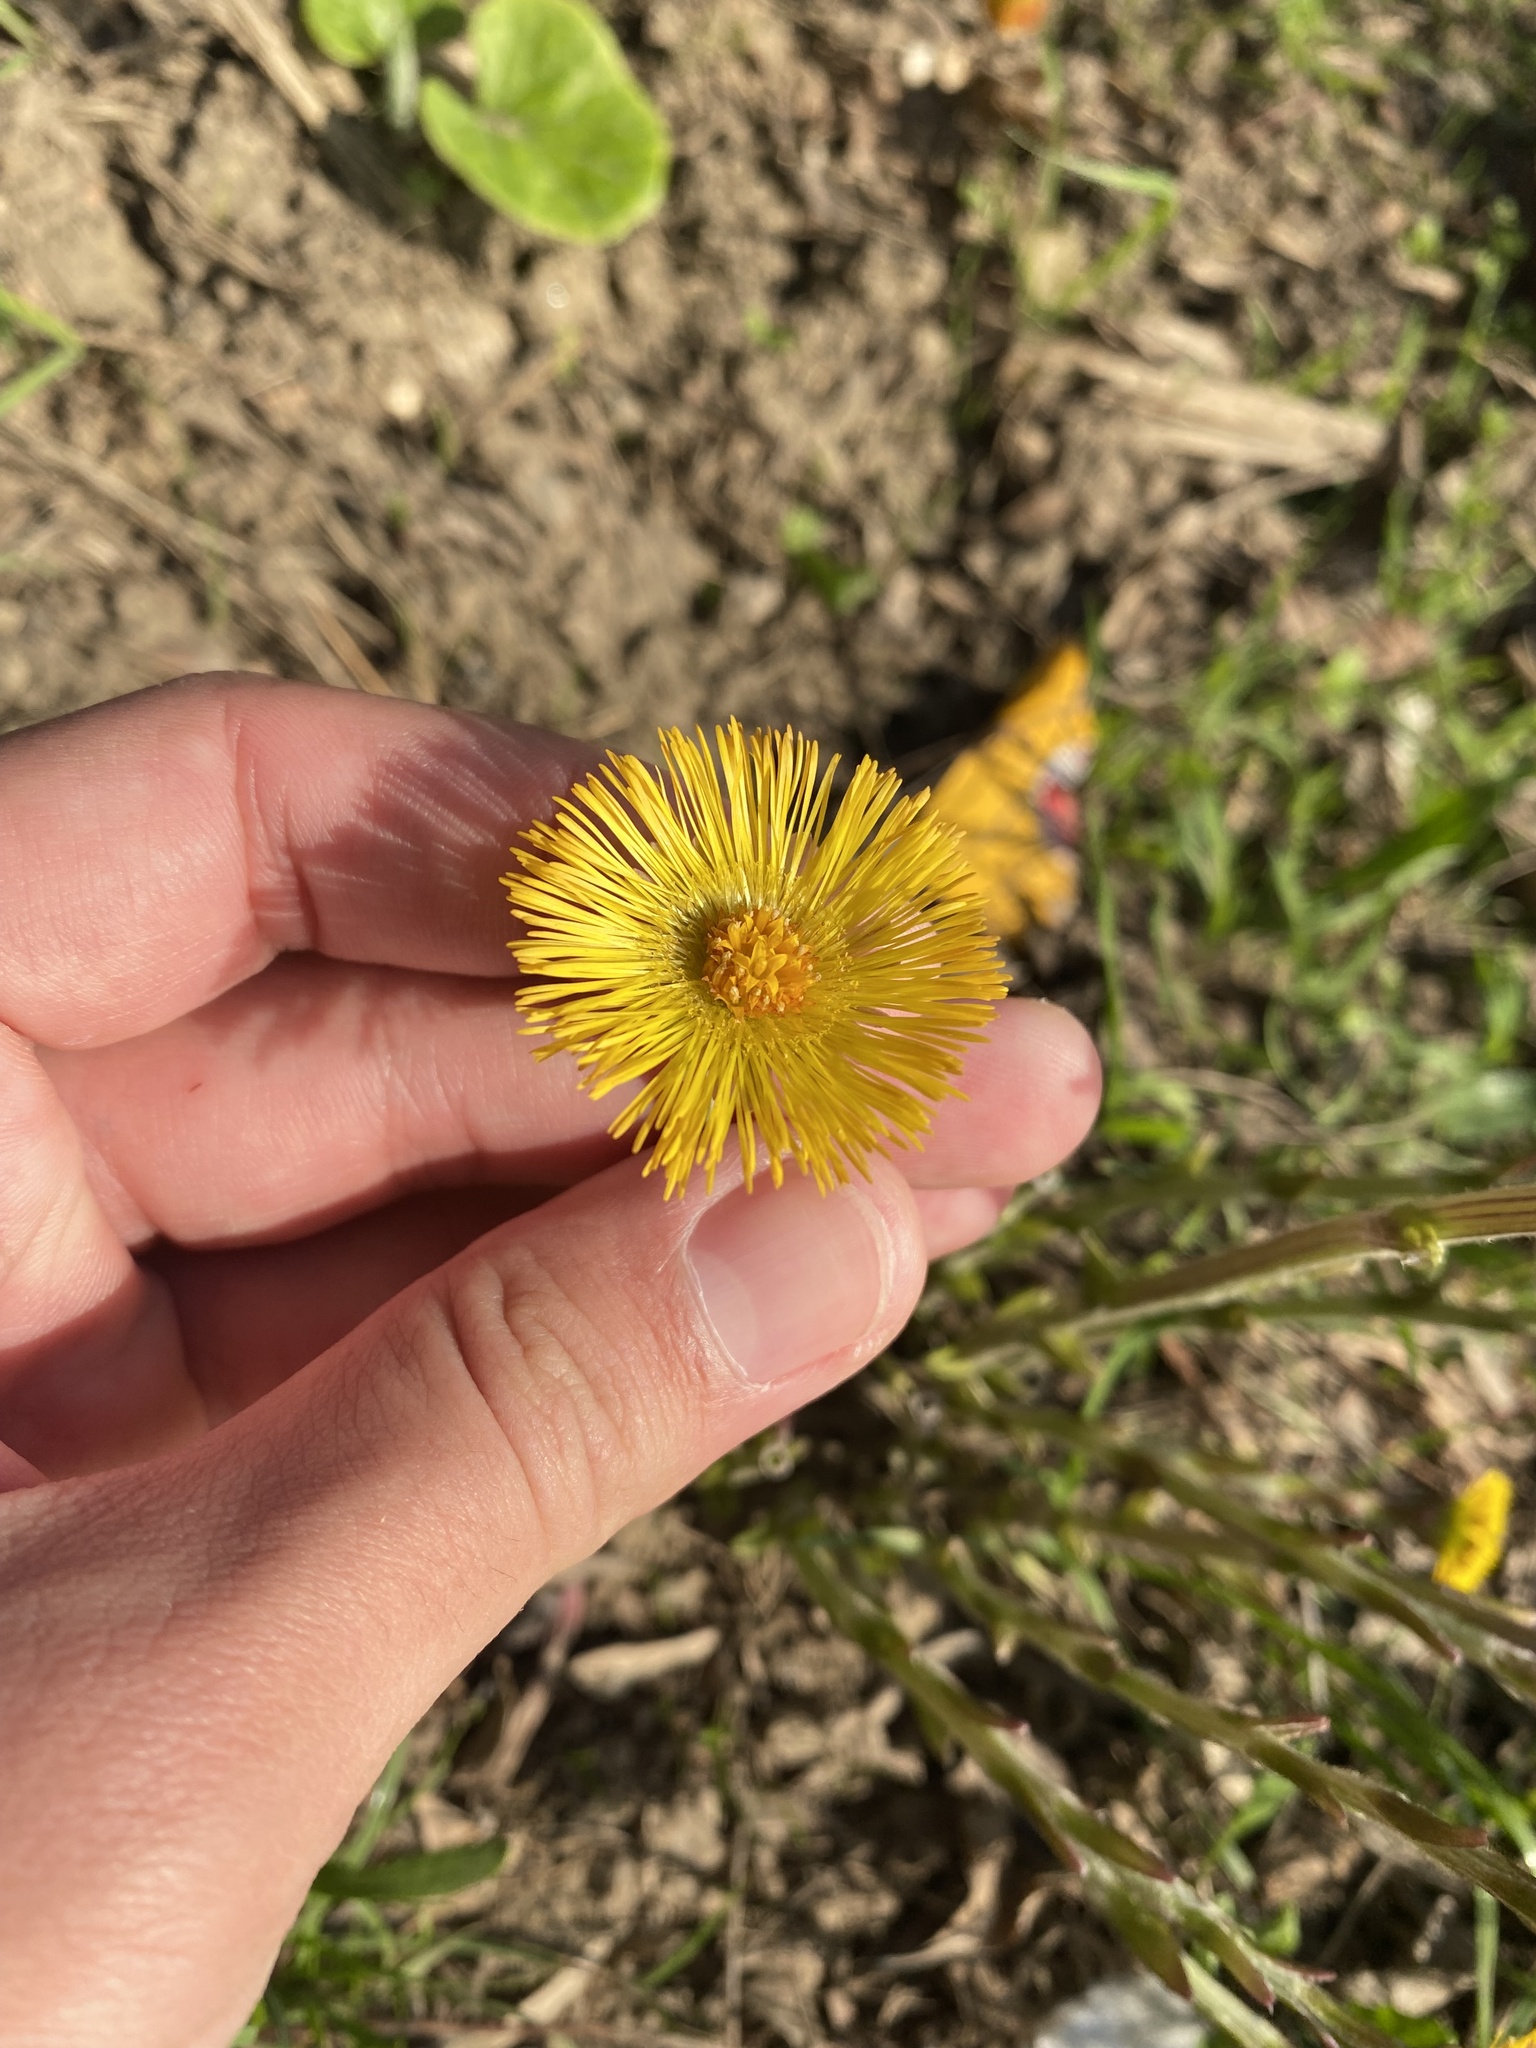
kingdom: Plantae
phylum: Tracheophyta
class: Magnoliopsida
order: Asterales
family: Asteraceae
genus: Tussilago
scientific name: Tussilago farfara
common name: Coltsfoot
